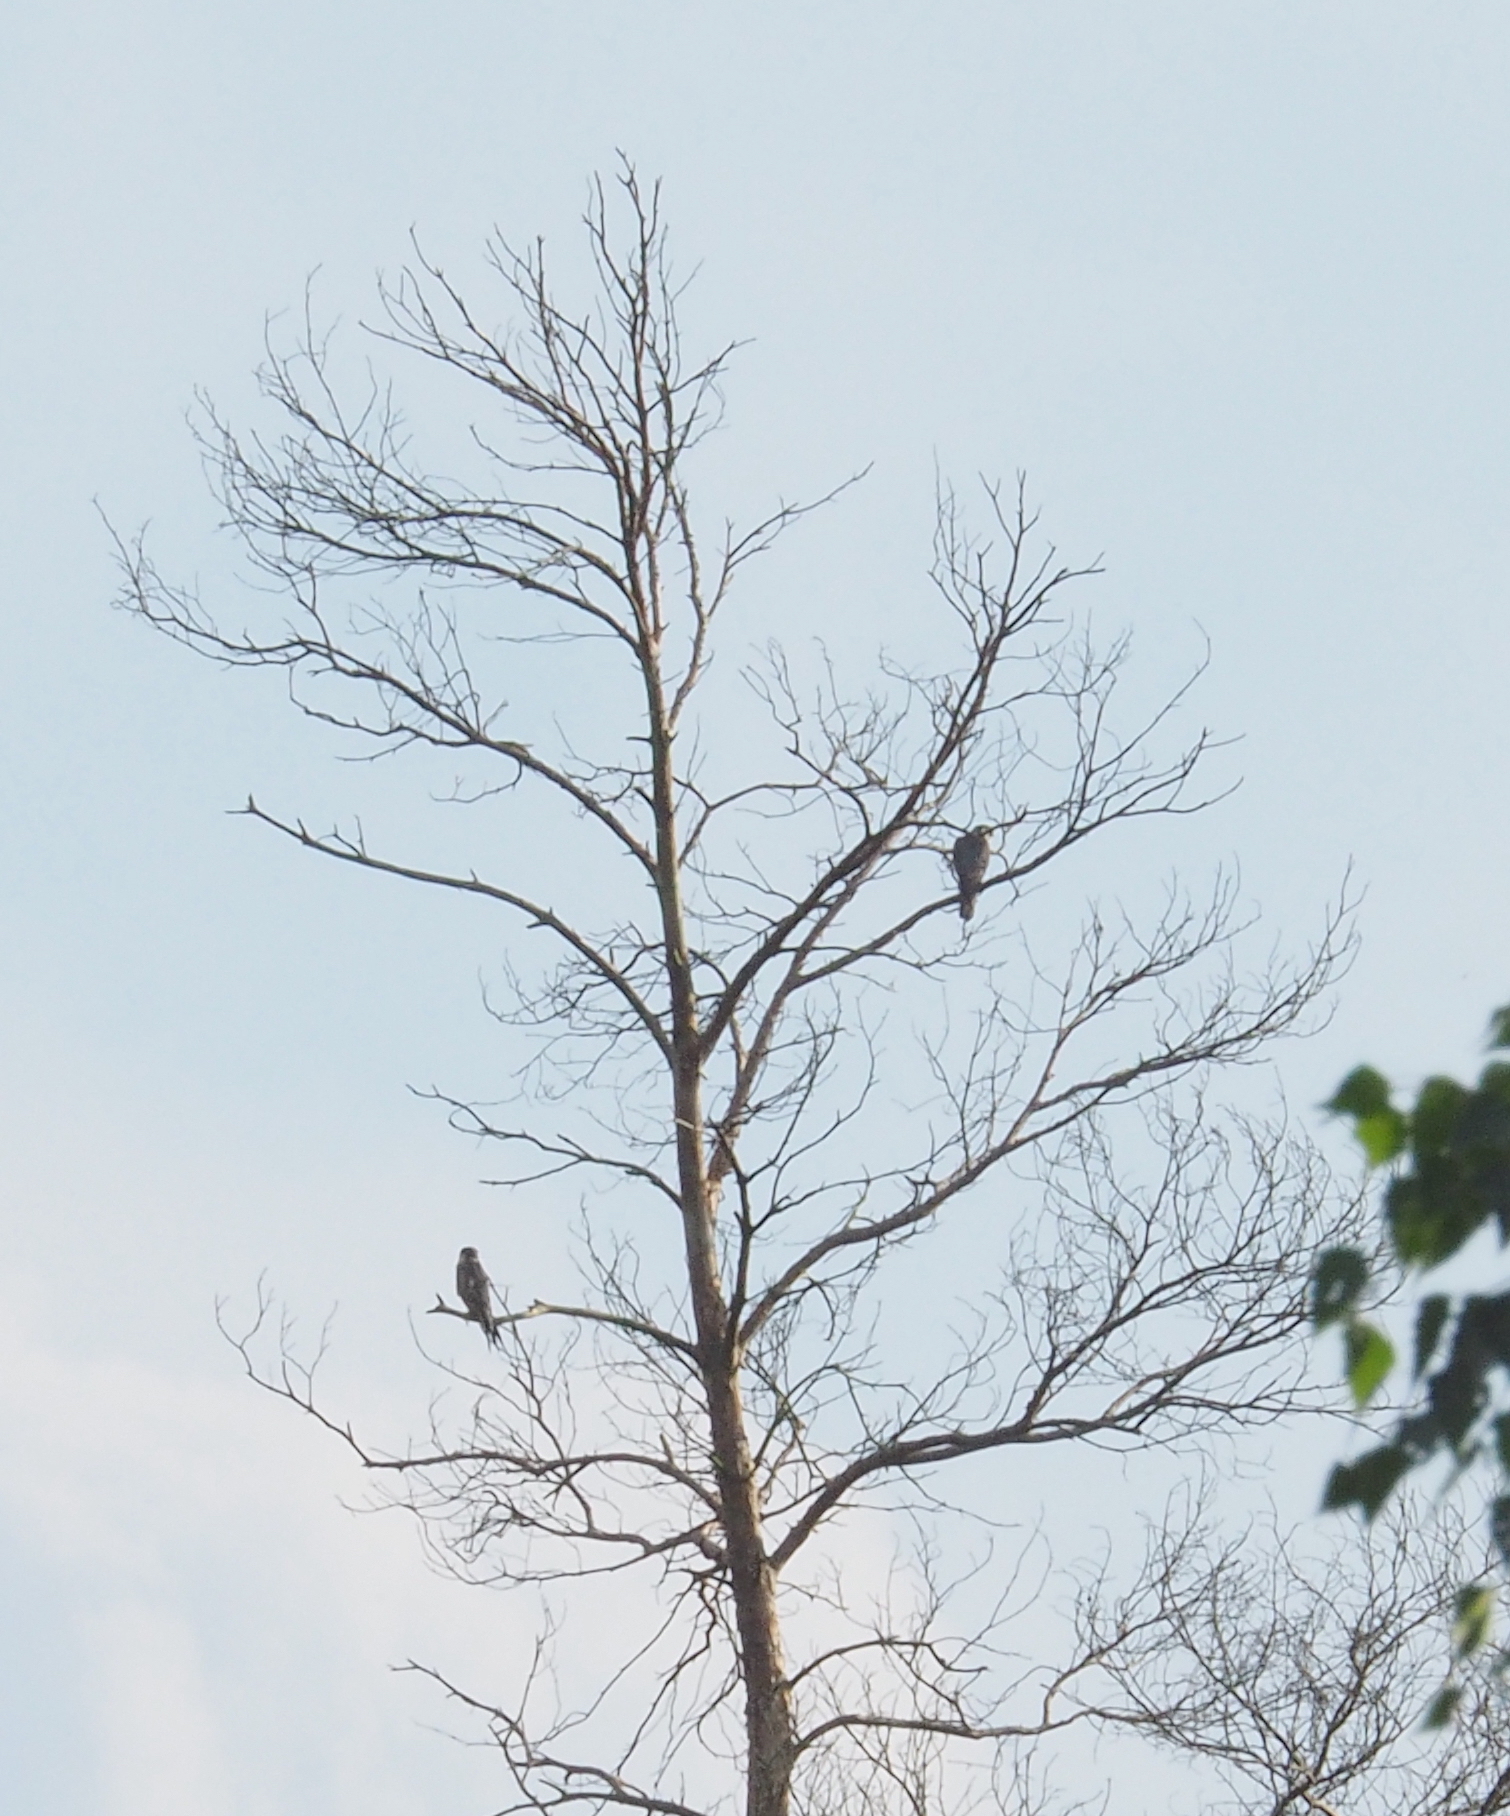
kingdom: Animalia
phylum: Chordata
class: Aves
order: Falconiformes
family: Falconidae
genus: Falco
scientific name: Falco subbuteo
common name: Eurasian hobby
